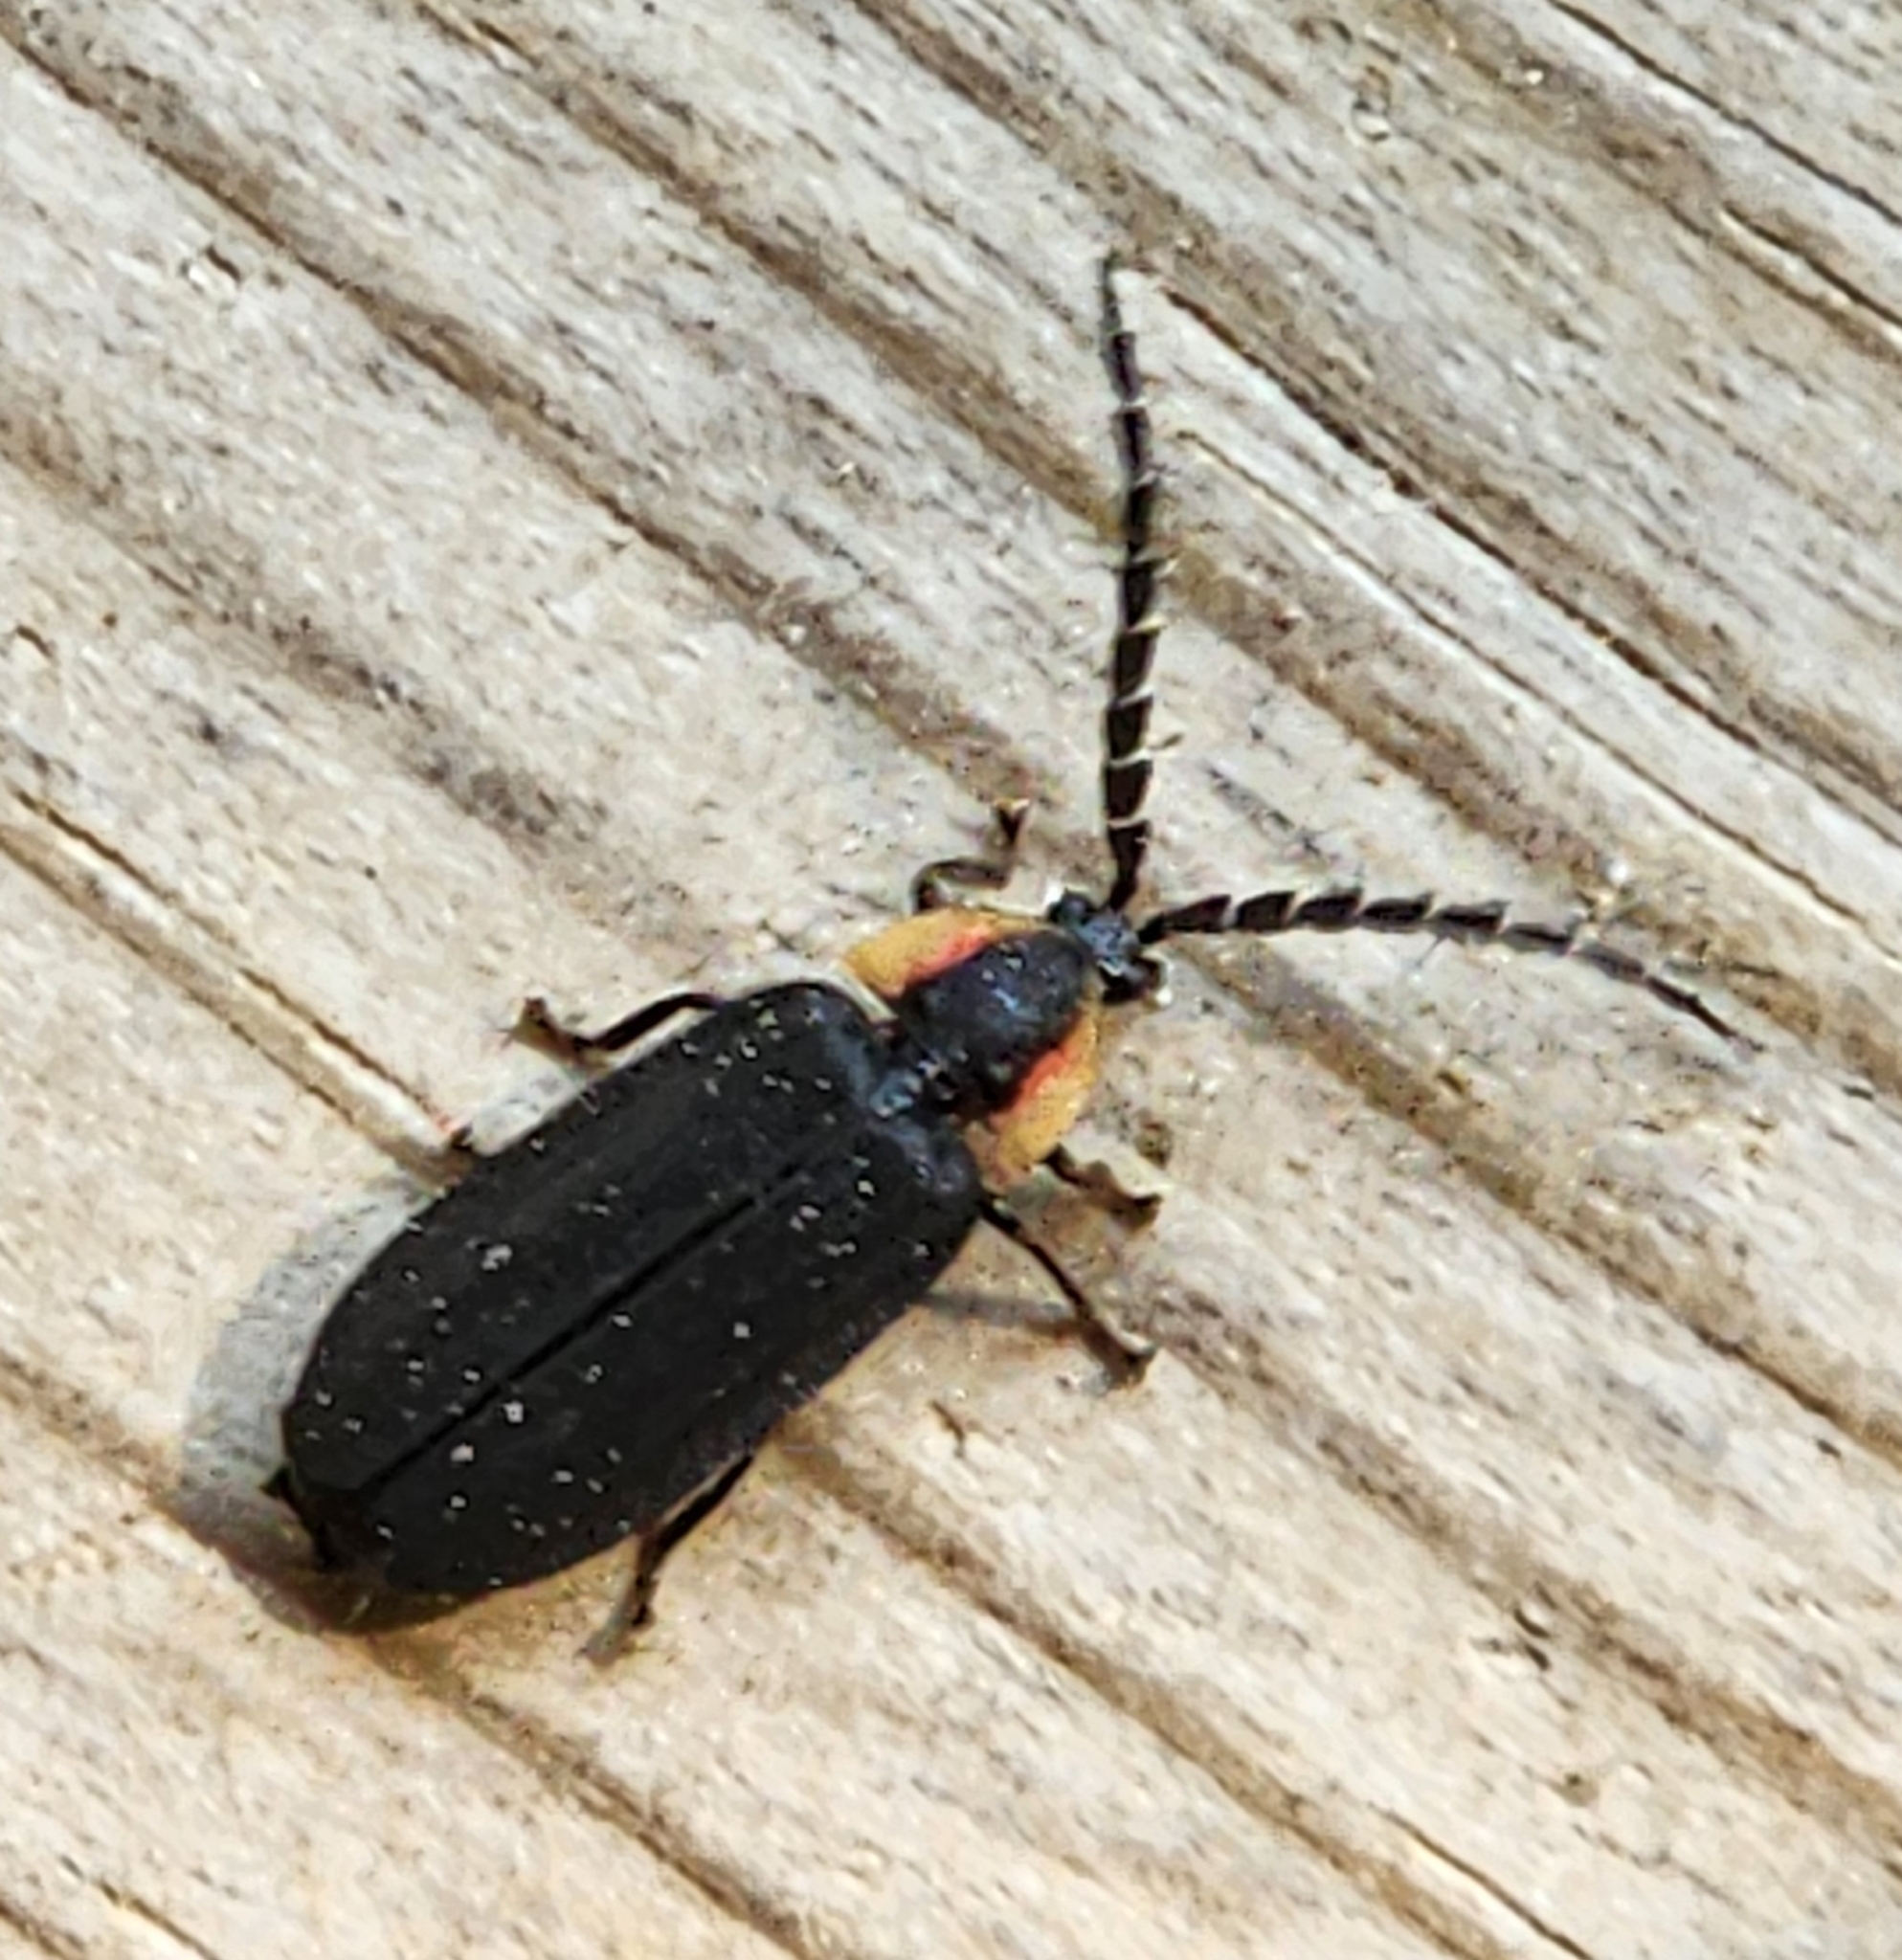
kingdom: Animalia
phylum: Arthropoda
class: Insecta
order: Coleoptera
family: Lampyridae
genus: Lucidota
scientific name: Lucidota atra
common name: Black firefly
